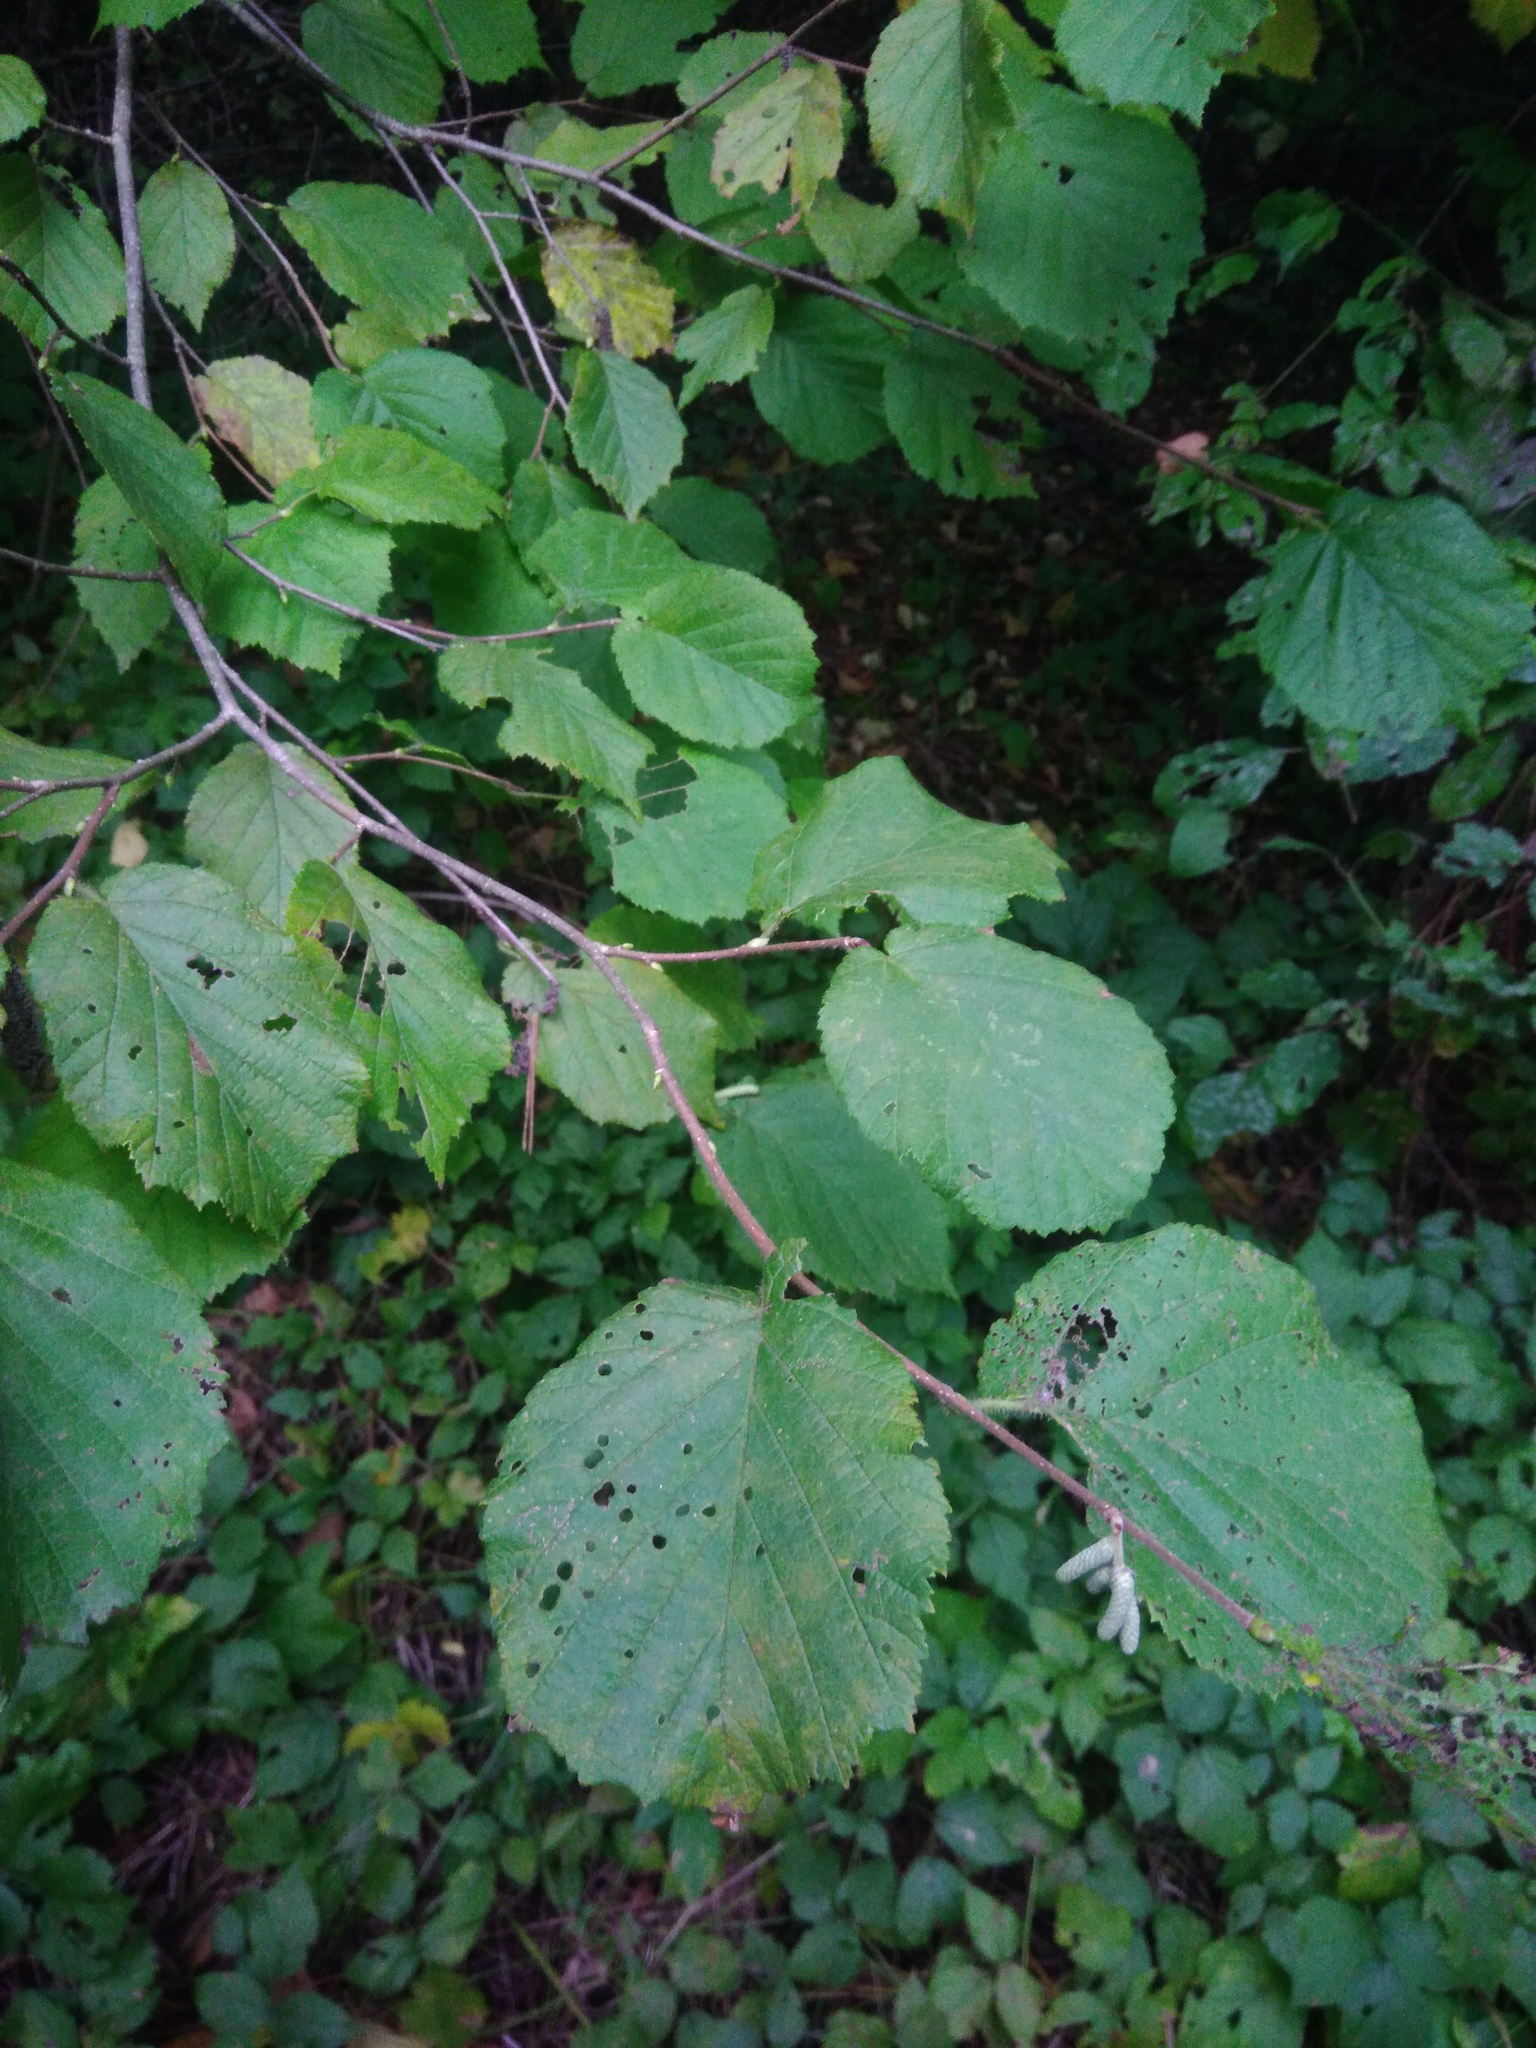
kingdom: Plantae
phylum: Tracheophyta
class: Magnoliopsida
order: Fagales
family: Betulaceae
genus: Corylus
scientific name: Corylus avellana
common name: European hazel
